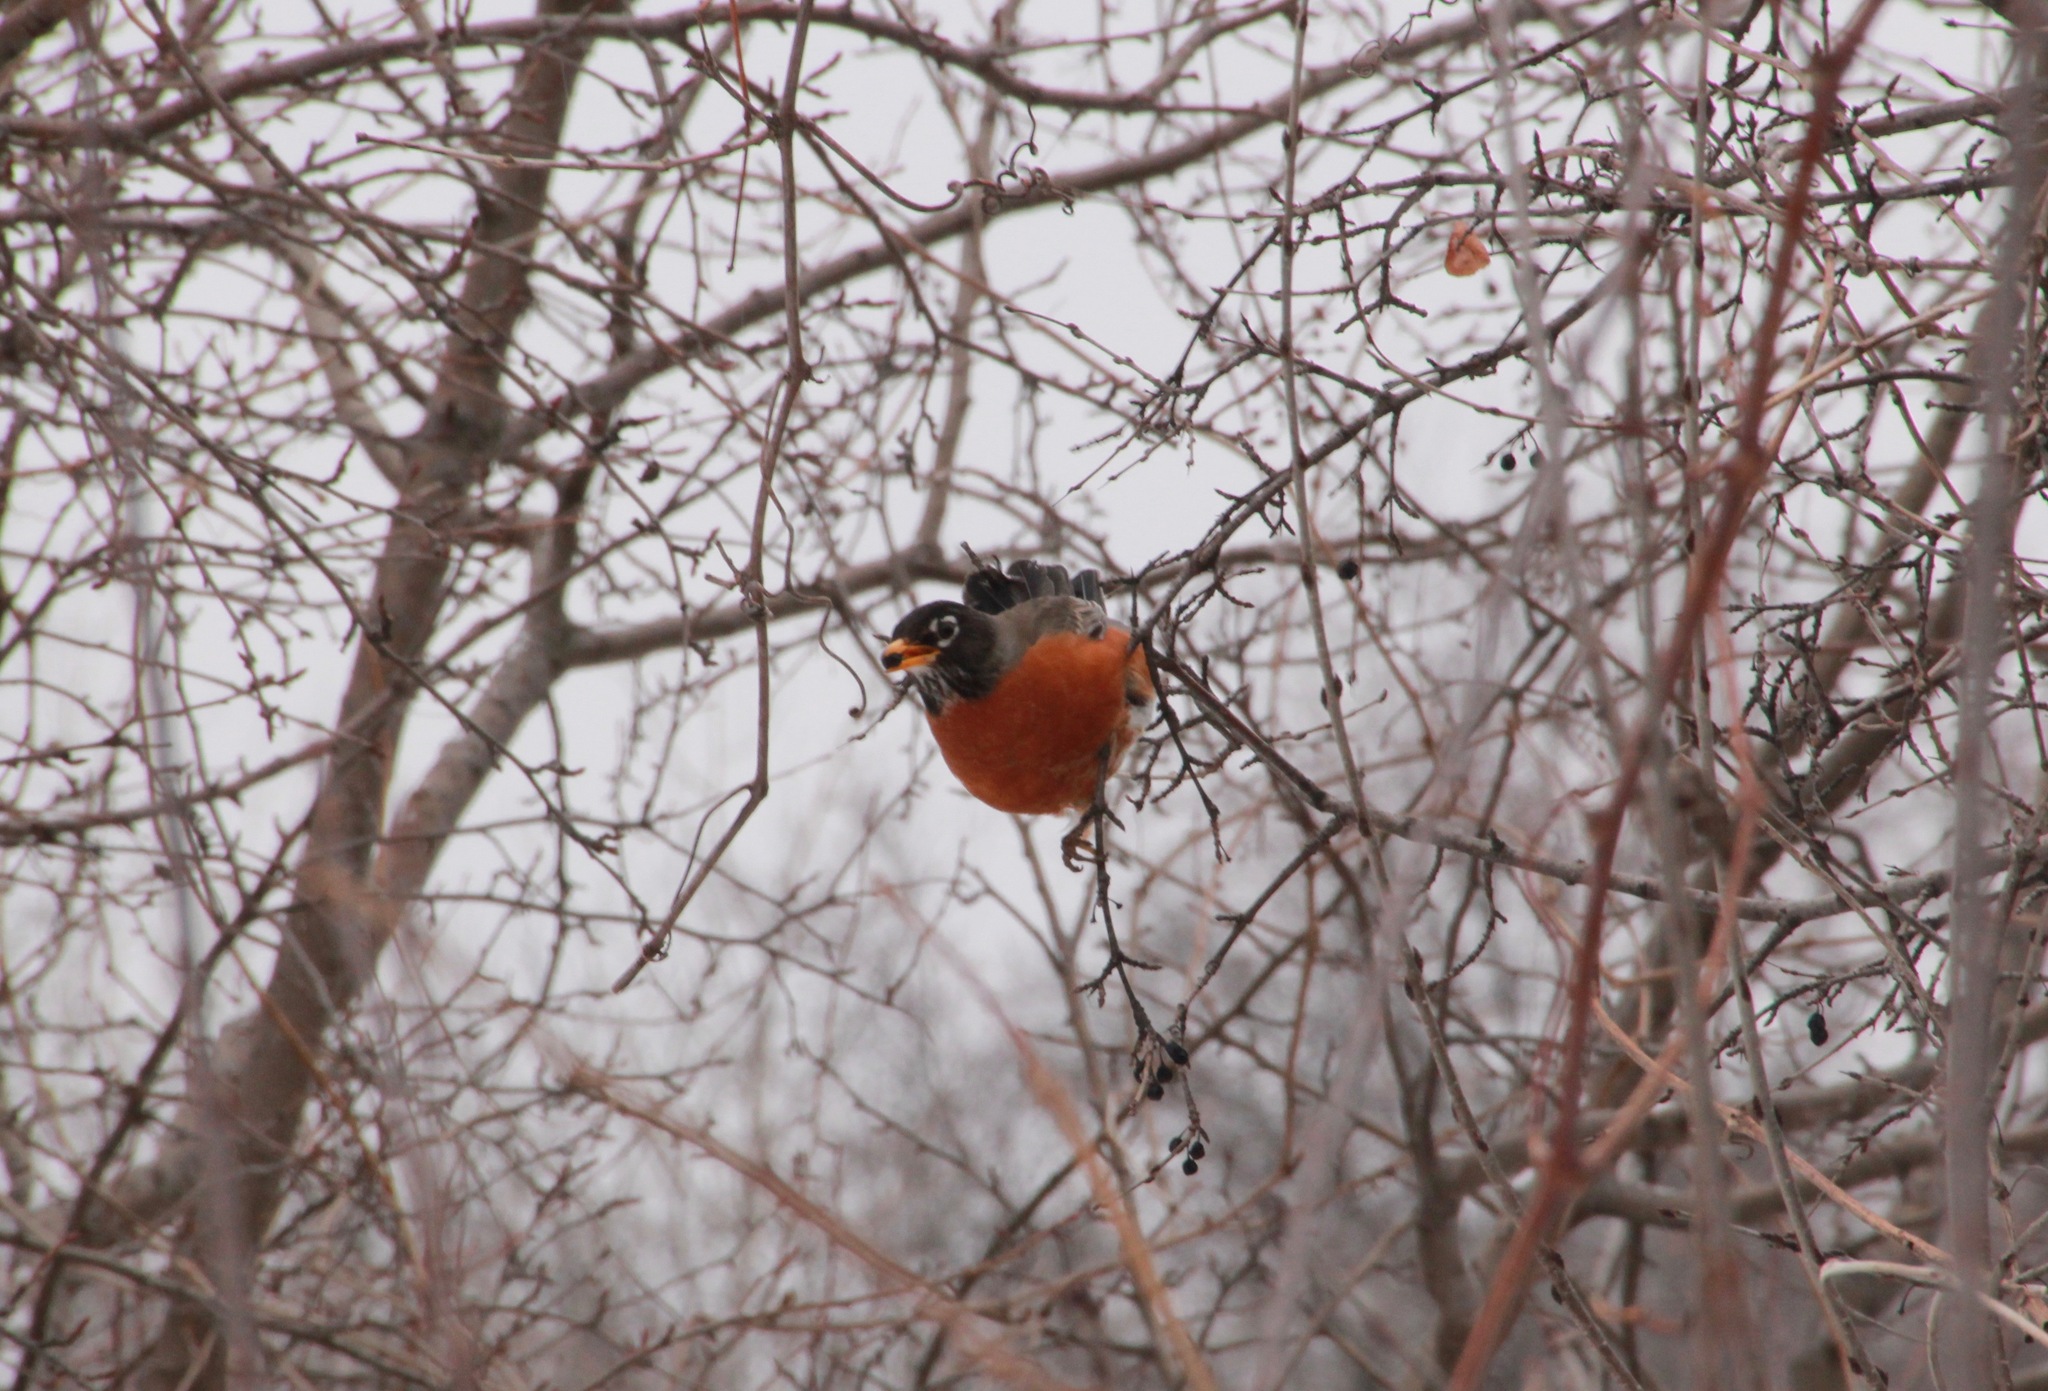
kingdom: Animalia
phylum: Chordata
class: Aves
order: Passeriformes
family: Turdidae
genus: Turdus
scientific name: Turdus migratorius
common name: American robin
